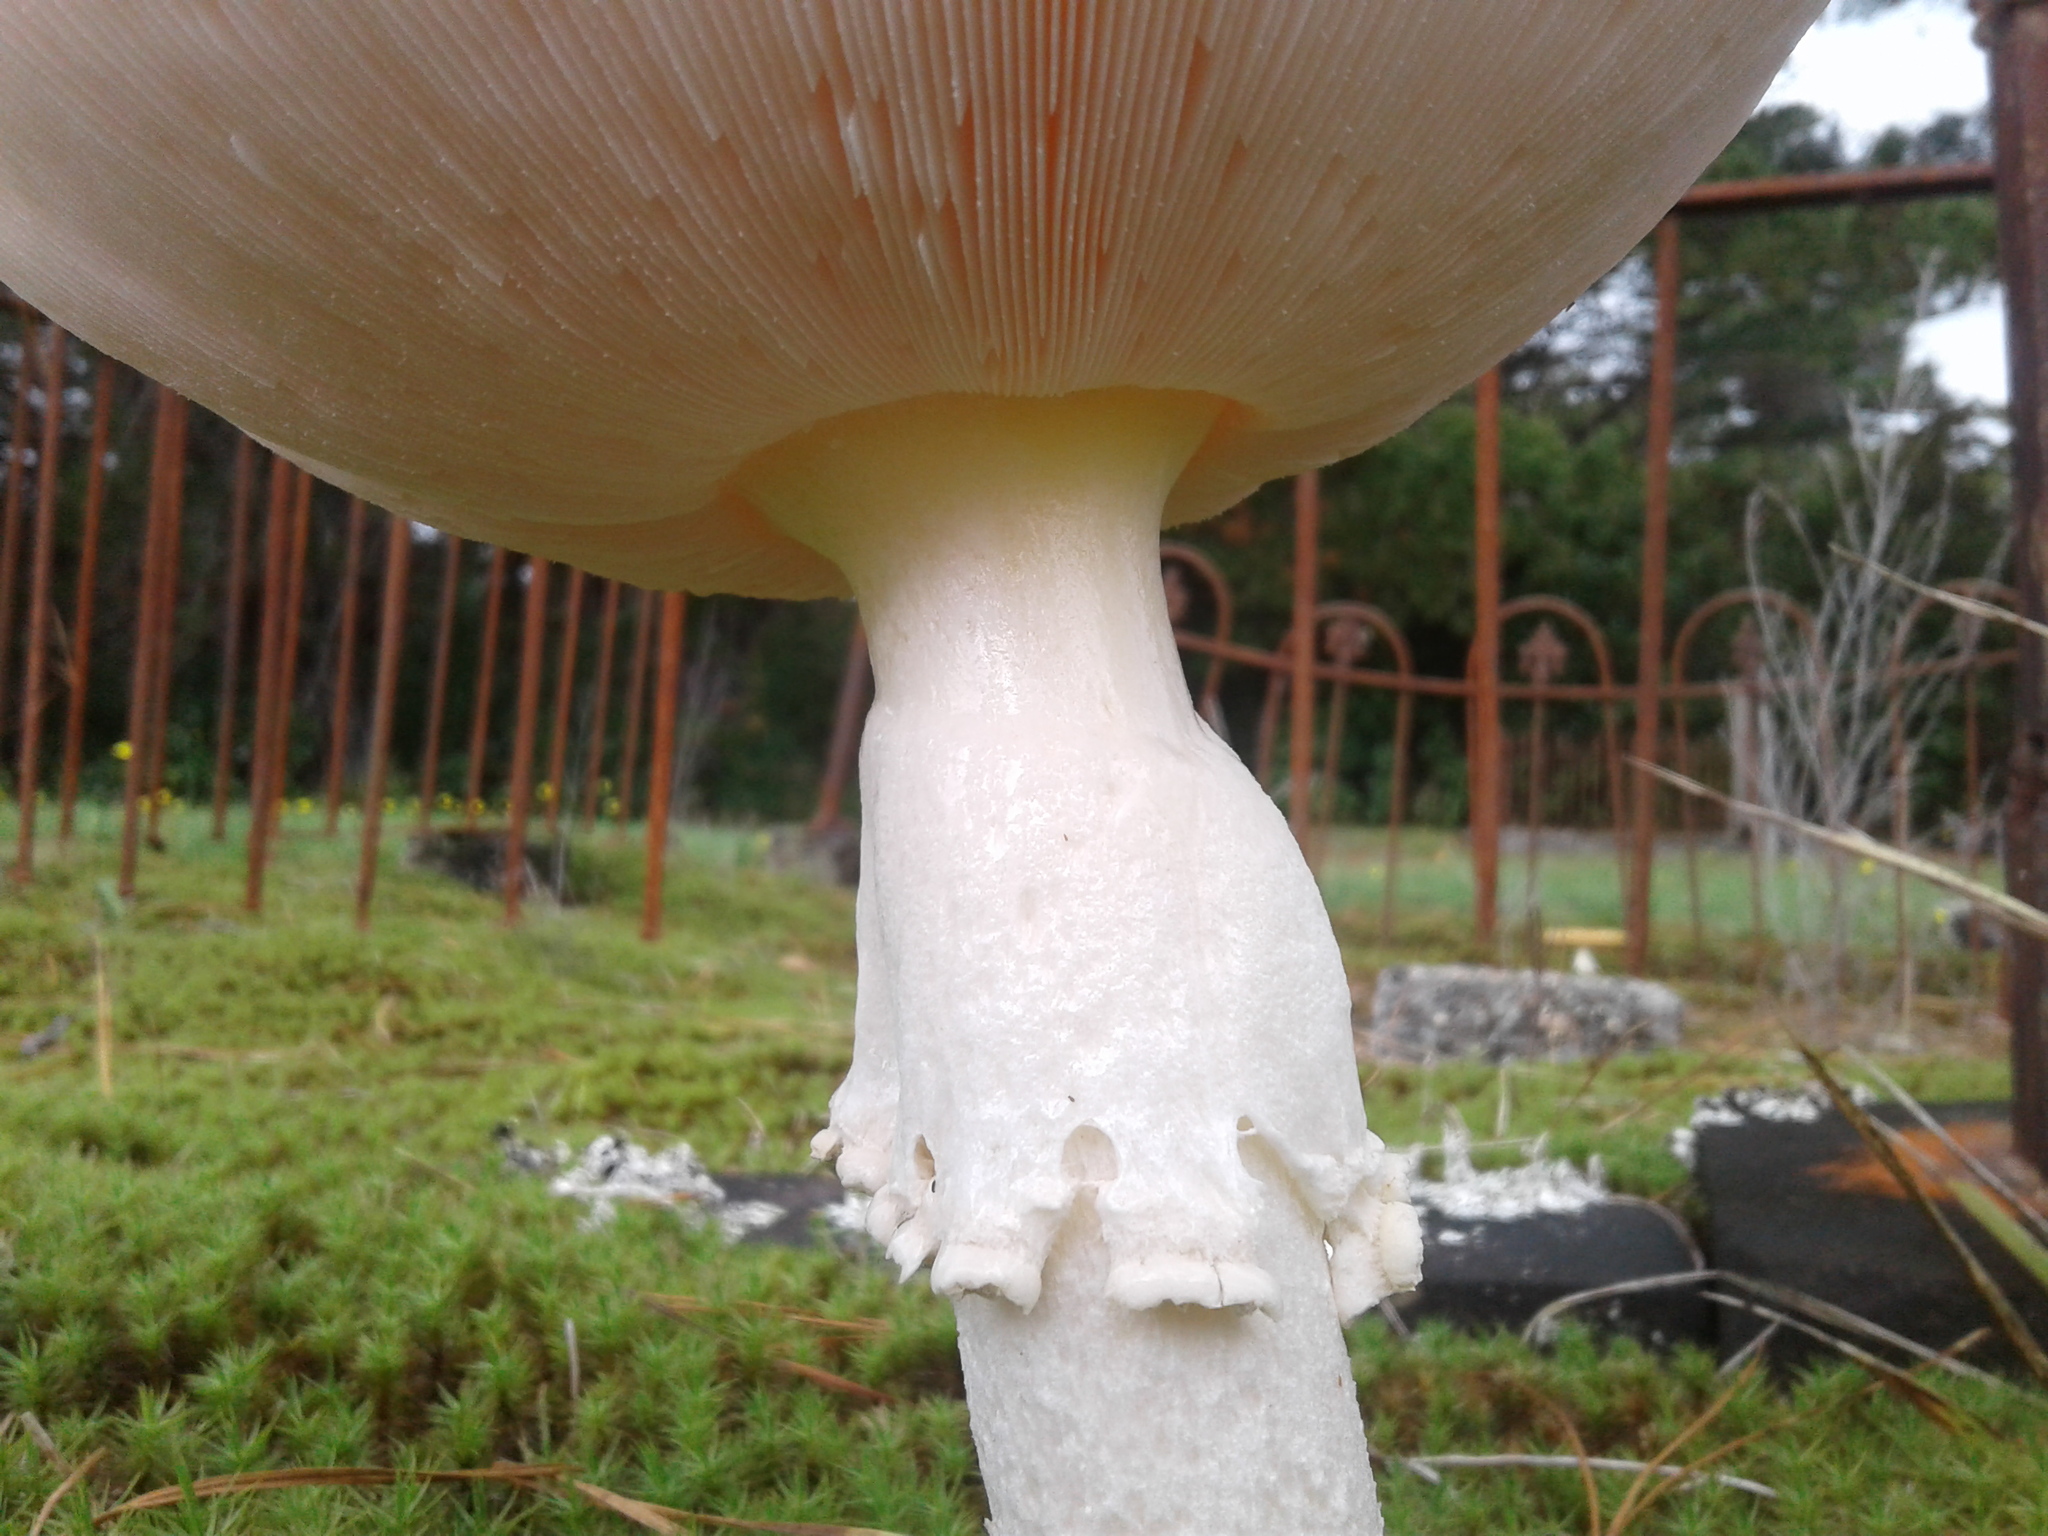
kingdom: Fungi
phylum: Basidiomycota
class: Agaricomycetes
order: Agaricales
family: Amanitaceae
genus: Amanita
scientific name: Amanita muscaria
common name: Fly agaric
